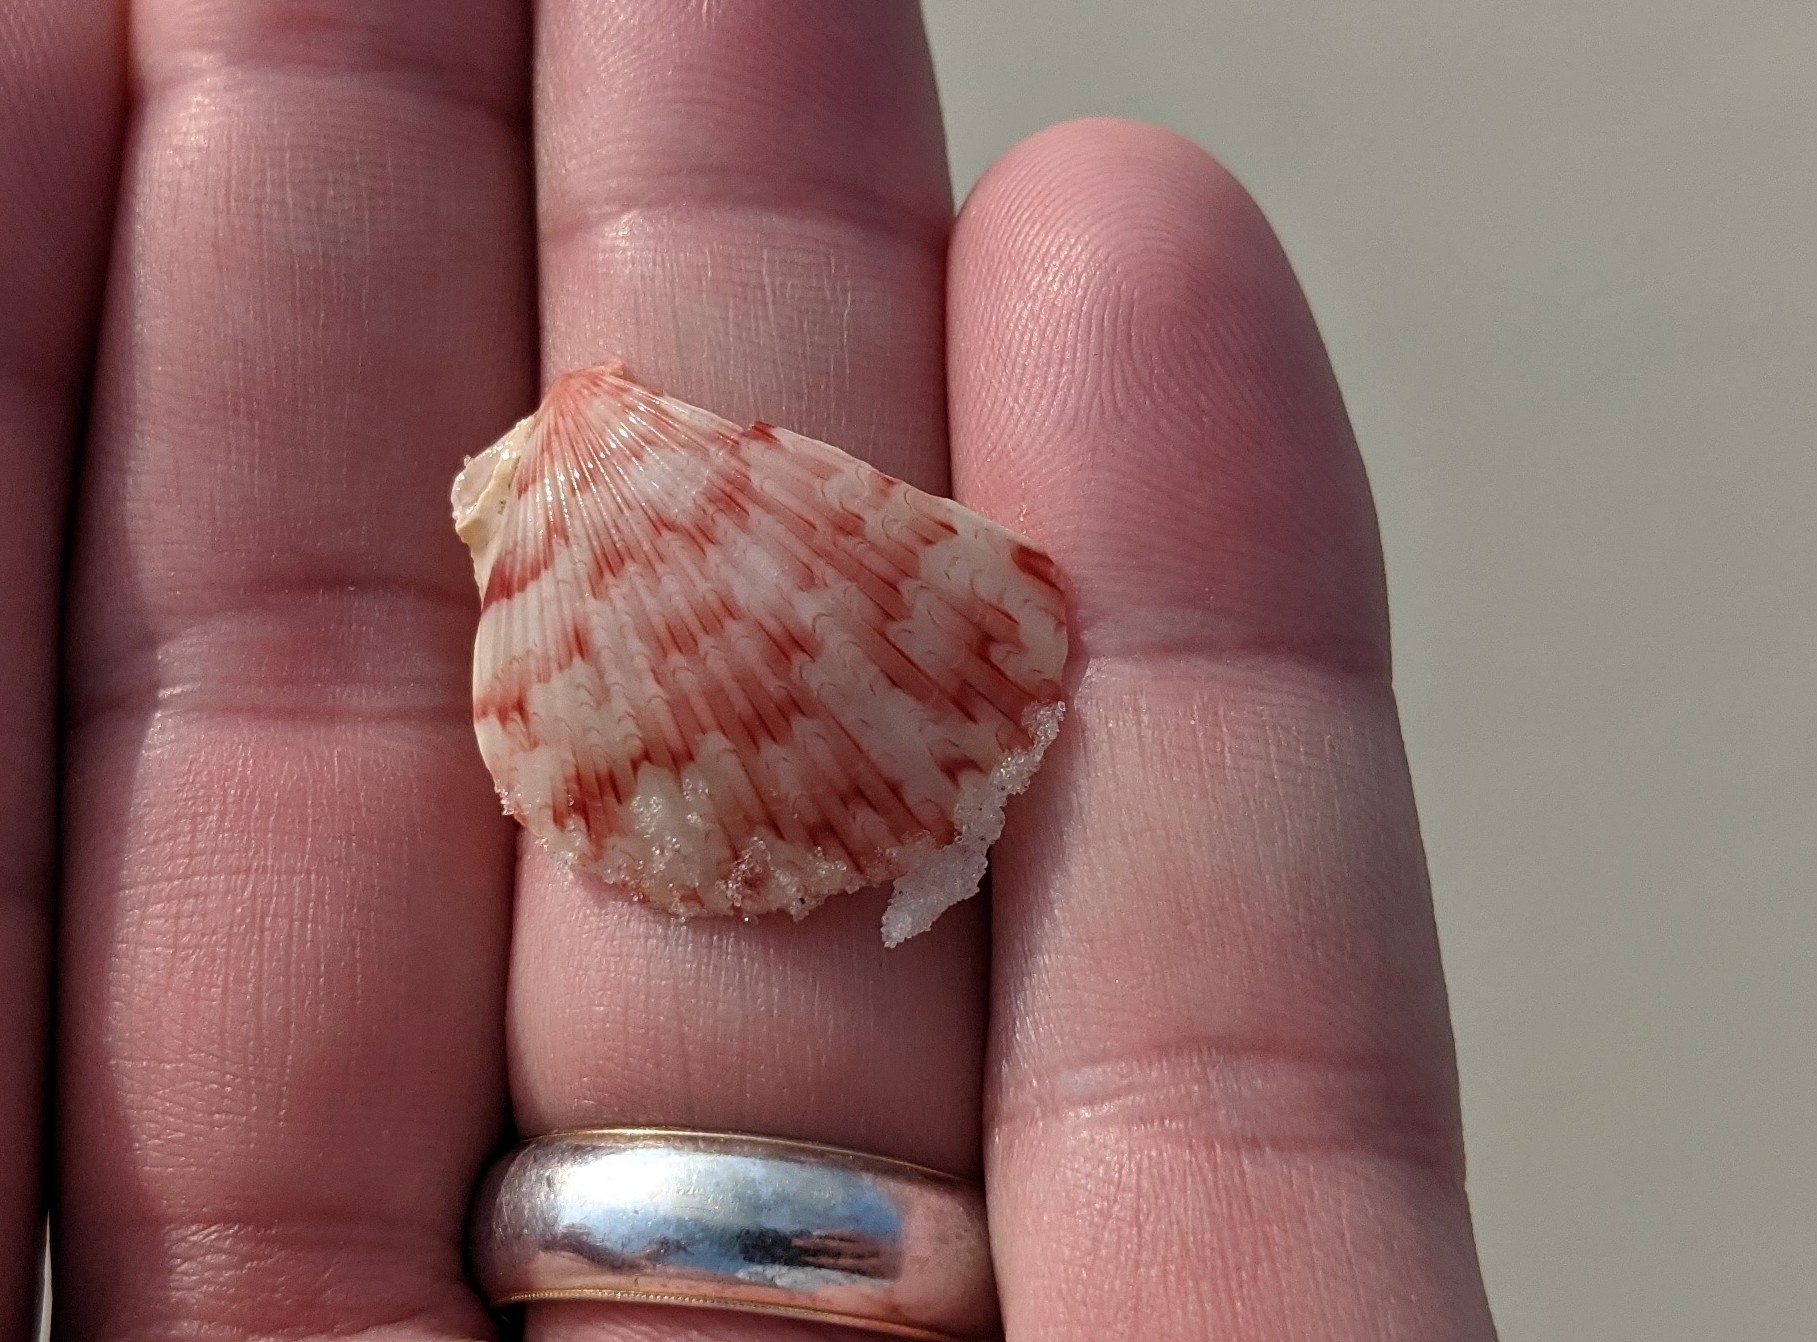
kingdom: Animalia
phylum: Mollusca
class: Bivalvia
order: Pectinida
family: Pectinidae
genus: Argopecten
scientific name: Argopecten gibbus
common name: Atlantic calico scallop
